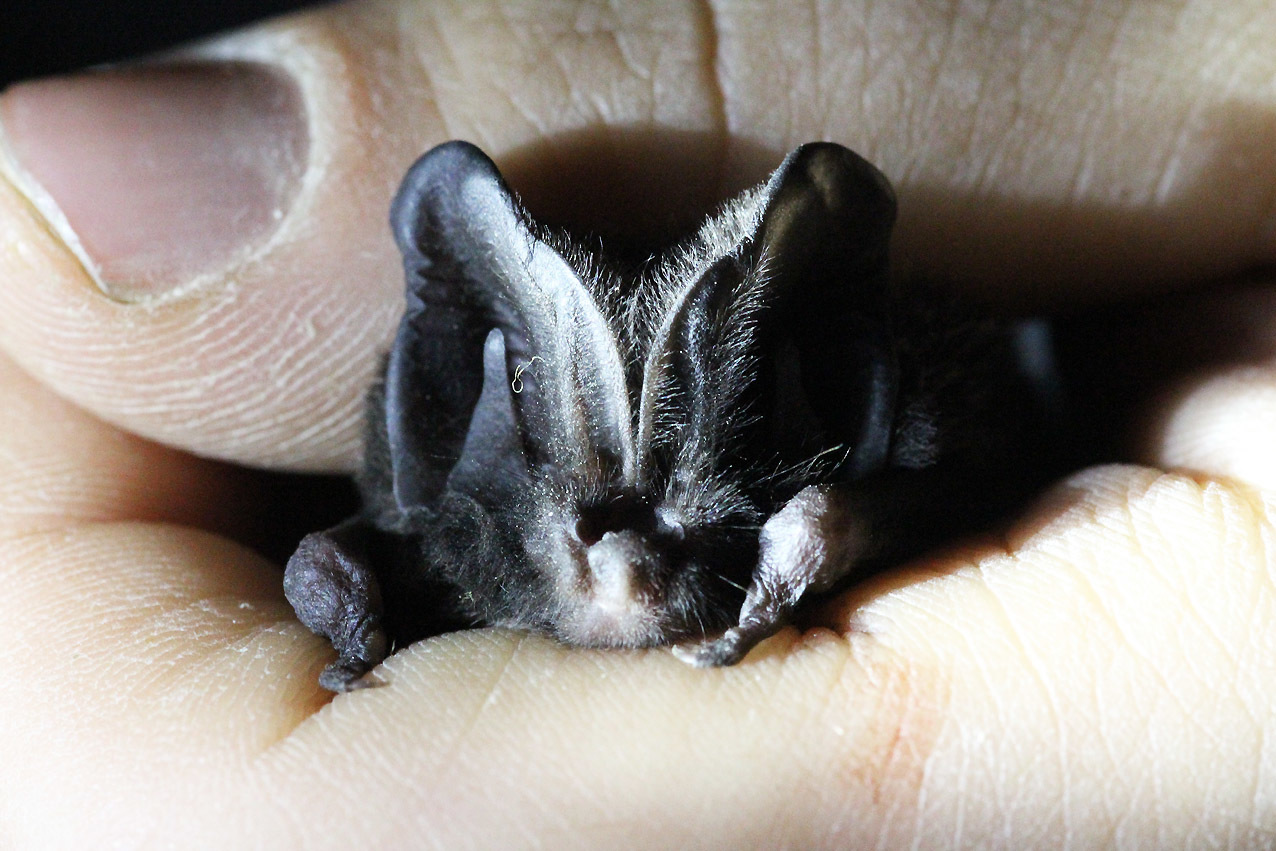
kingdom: Animalia
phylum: Chordata
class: Mammalia
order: Chiroptera
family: Vespertilionidae
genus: Barbastella
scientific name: Barbastella barbastellus
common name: Western barbastelle
